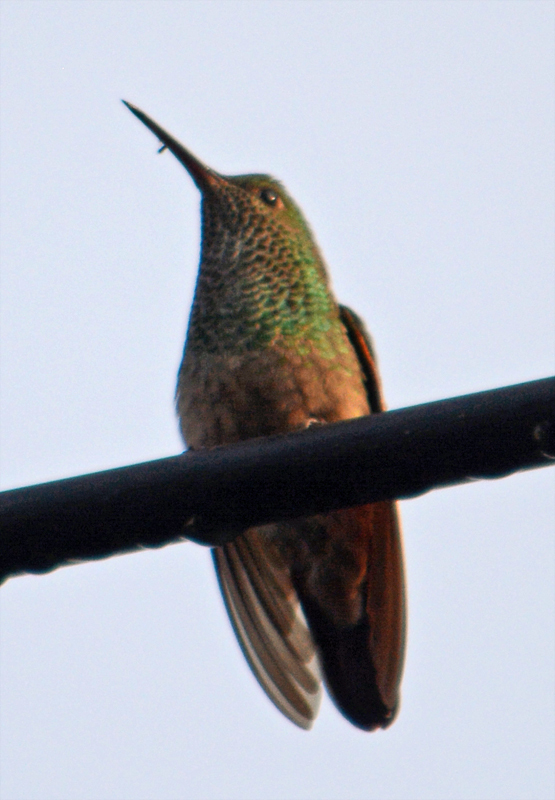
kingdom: Animalia
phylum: Chordata
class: Aves
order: Apodiformes
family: Trochilidae
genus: Saucerottia
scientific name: Saucerottia beryllina
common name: Berylline hummingbird
